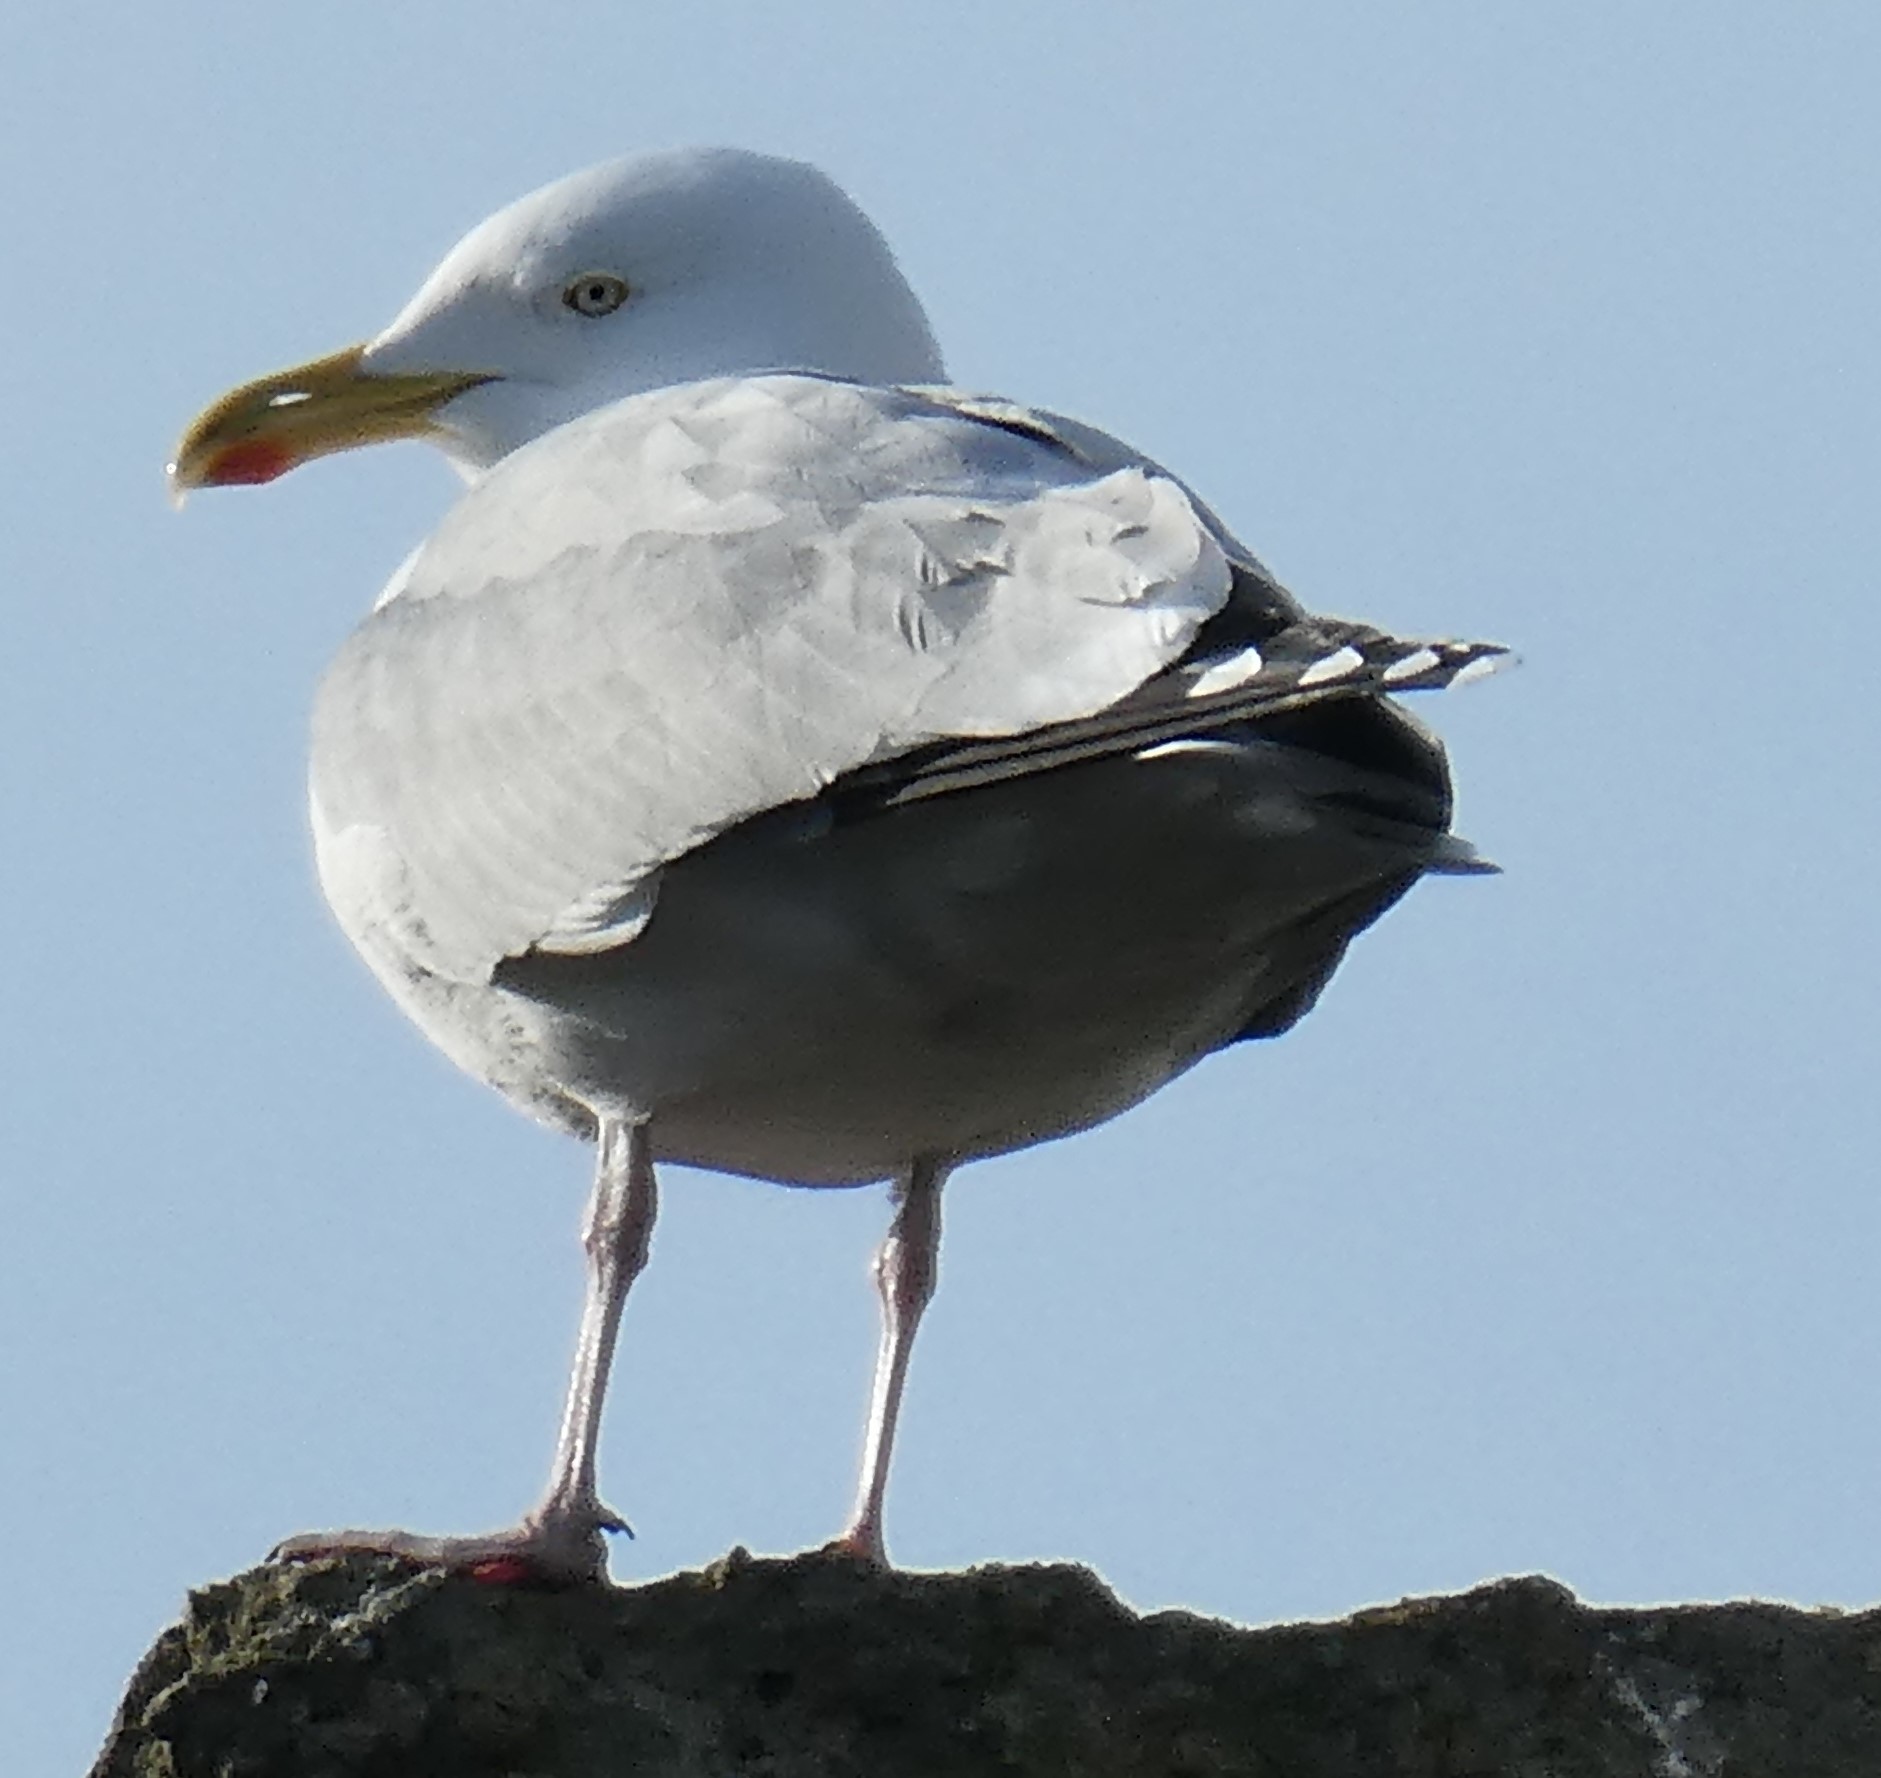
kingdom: Animalia
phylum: Chordata
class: Aves
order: Charadriiformes
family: Laridae
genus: Larus
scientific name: Larus argentatus
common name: Herring gull
